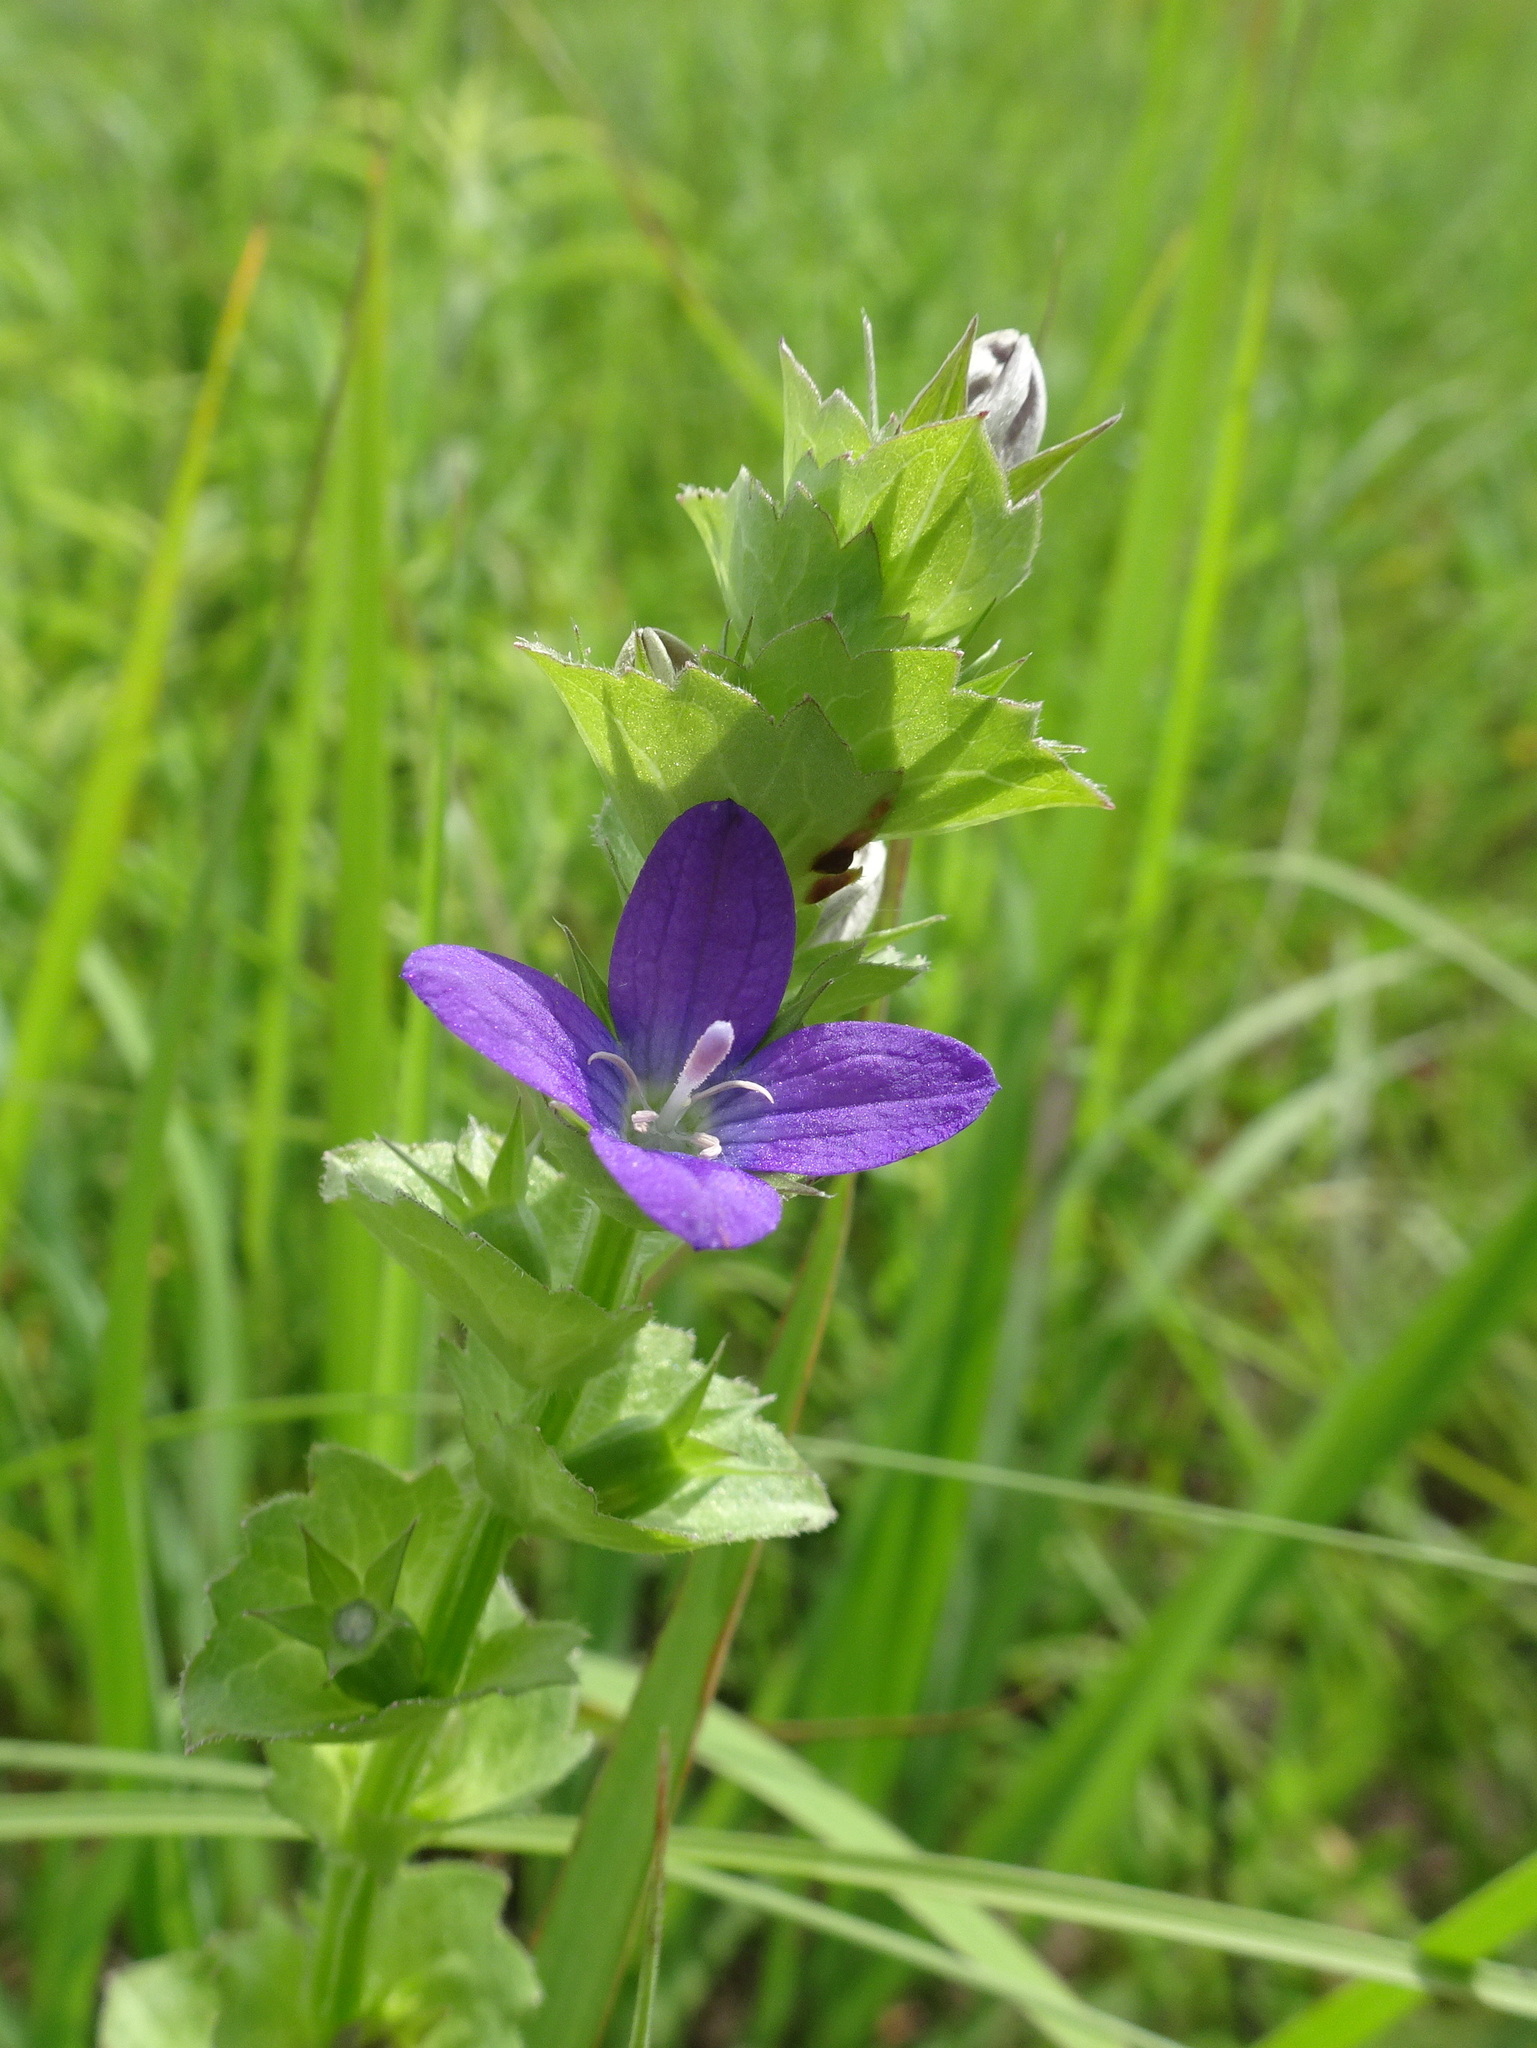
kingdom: Plantae
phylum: Tracheophyta
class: Magnoliopsida
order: Asterales
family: Campanulaceae
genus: Triodanis
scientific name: Triodanis perfoliata
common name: Clasping venus' looking-glass
